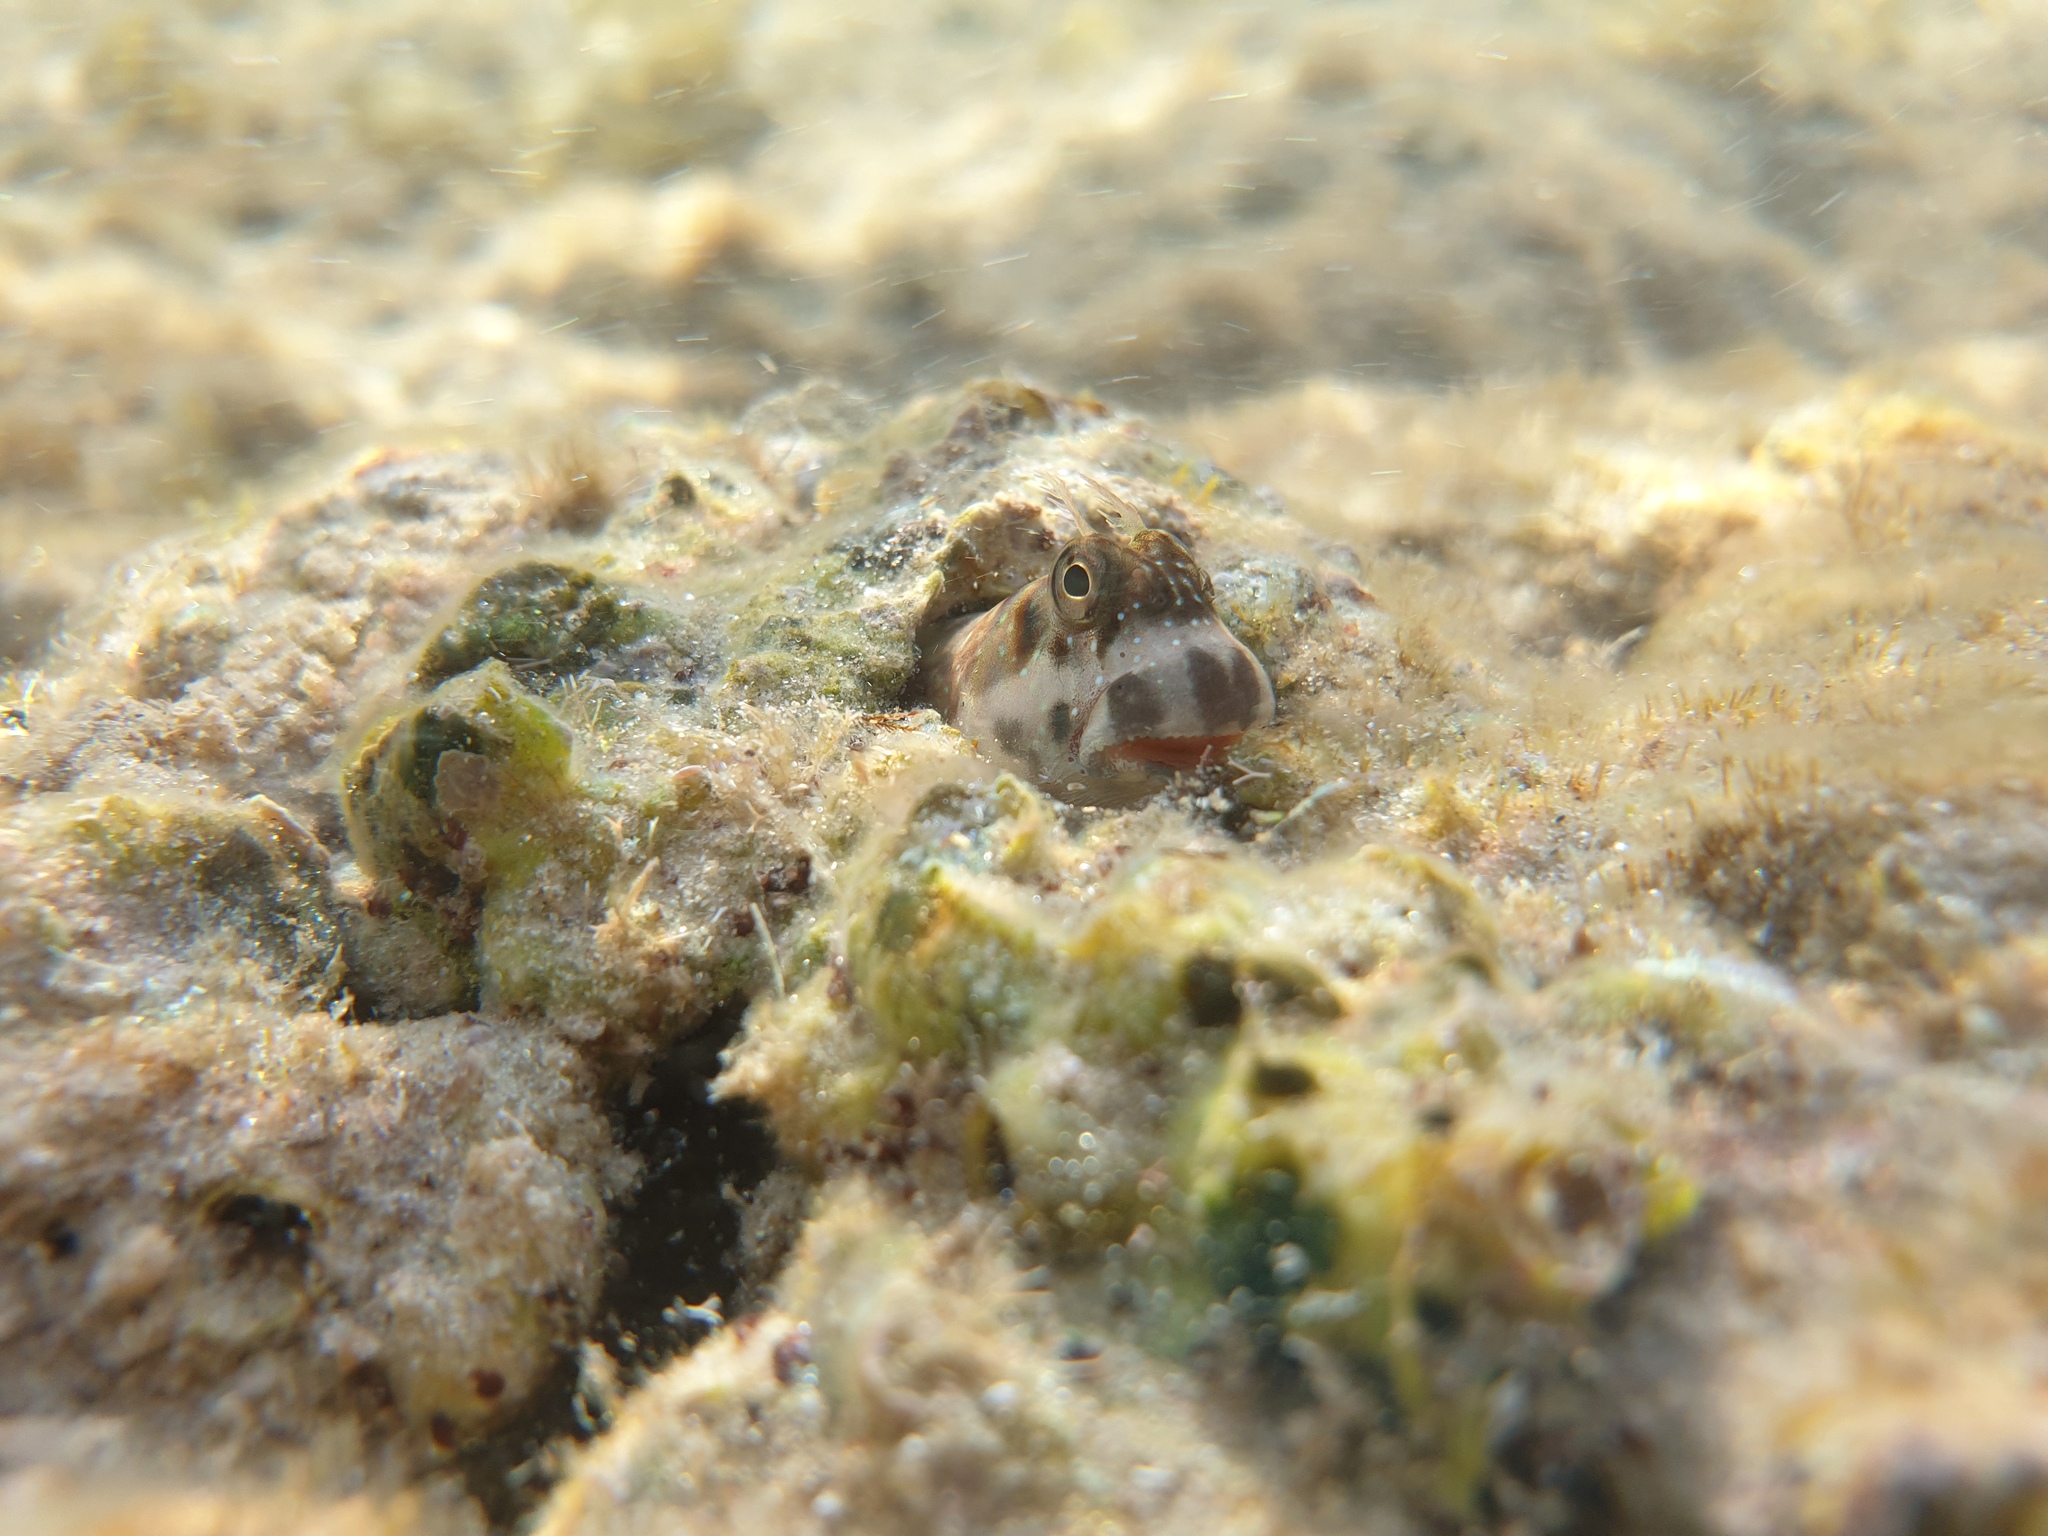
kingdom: Animalia
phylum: Chordata
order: Perciformes
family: Blenniidae
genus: Istiblennius
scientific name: Istiblennius meleagris
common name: Peacock rockskipper
